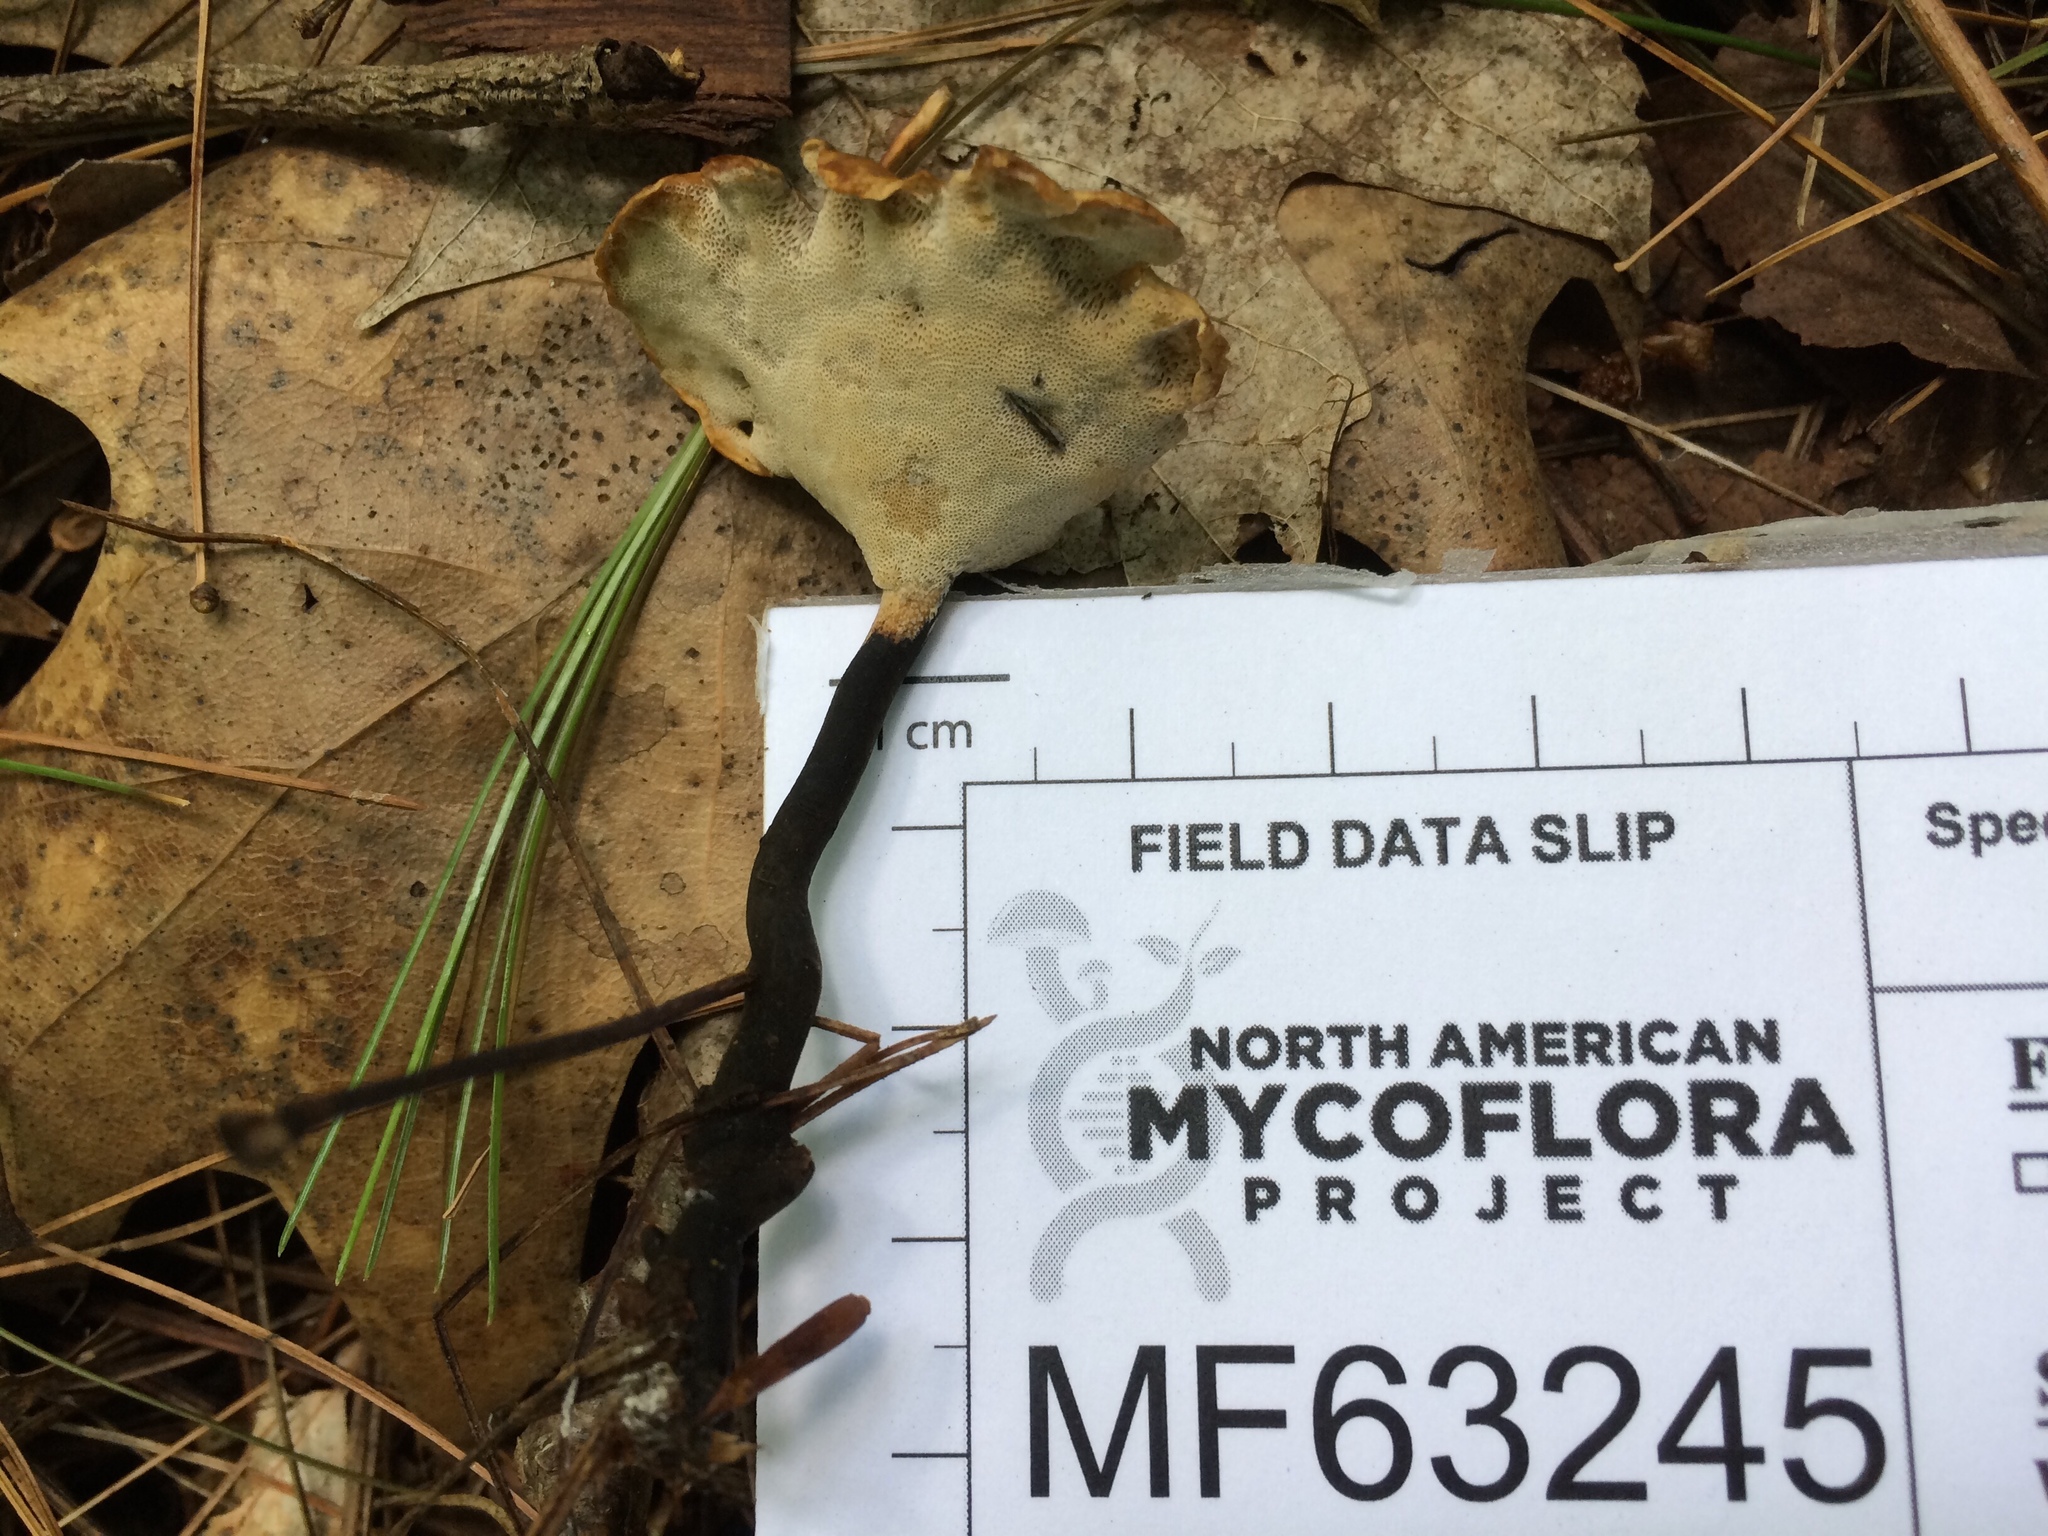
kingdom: Fungi
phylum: Basidiomycota
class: Agaricomycetes
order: Polyporales
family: Polyporaceae
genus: Cerioporus
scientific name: Cerioporus leptocephalus
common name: Blackfoot polypore
